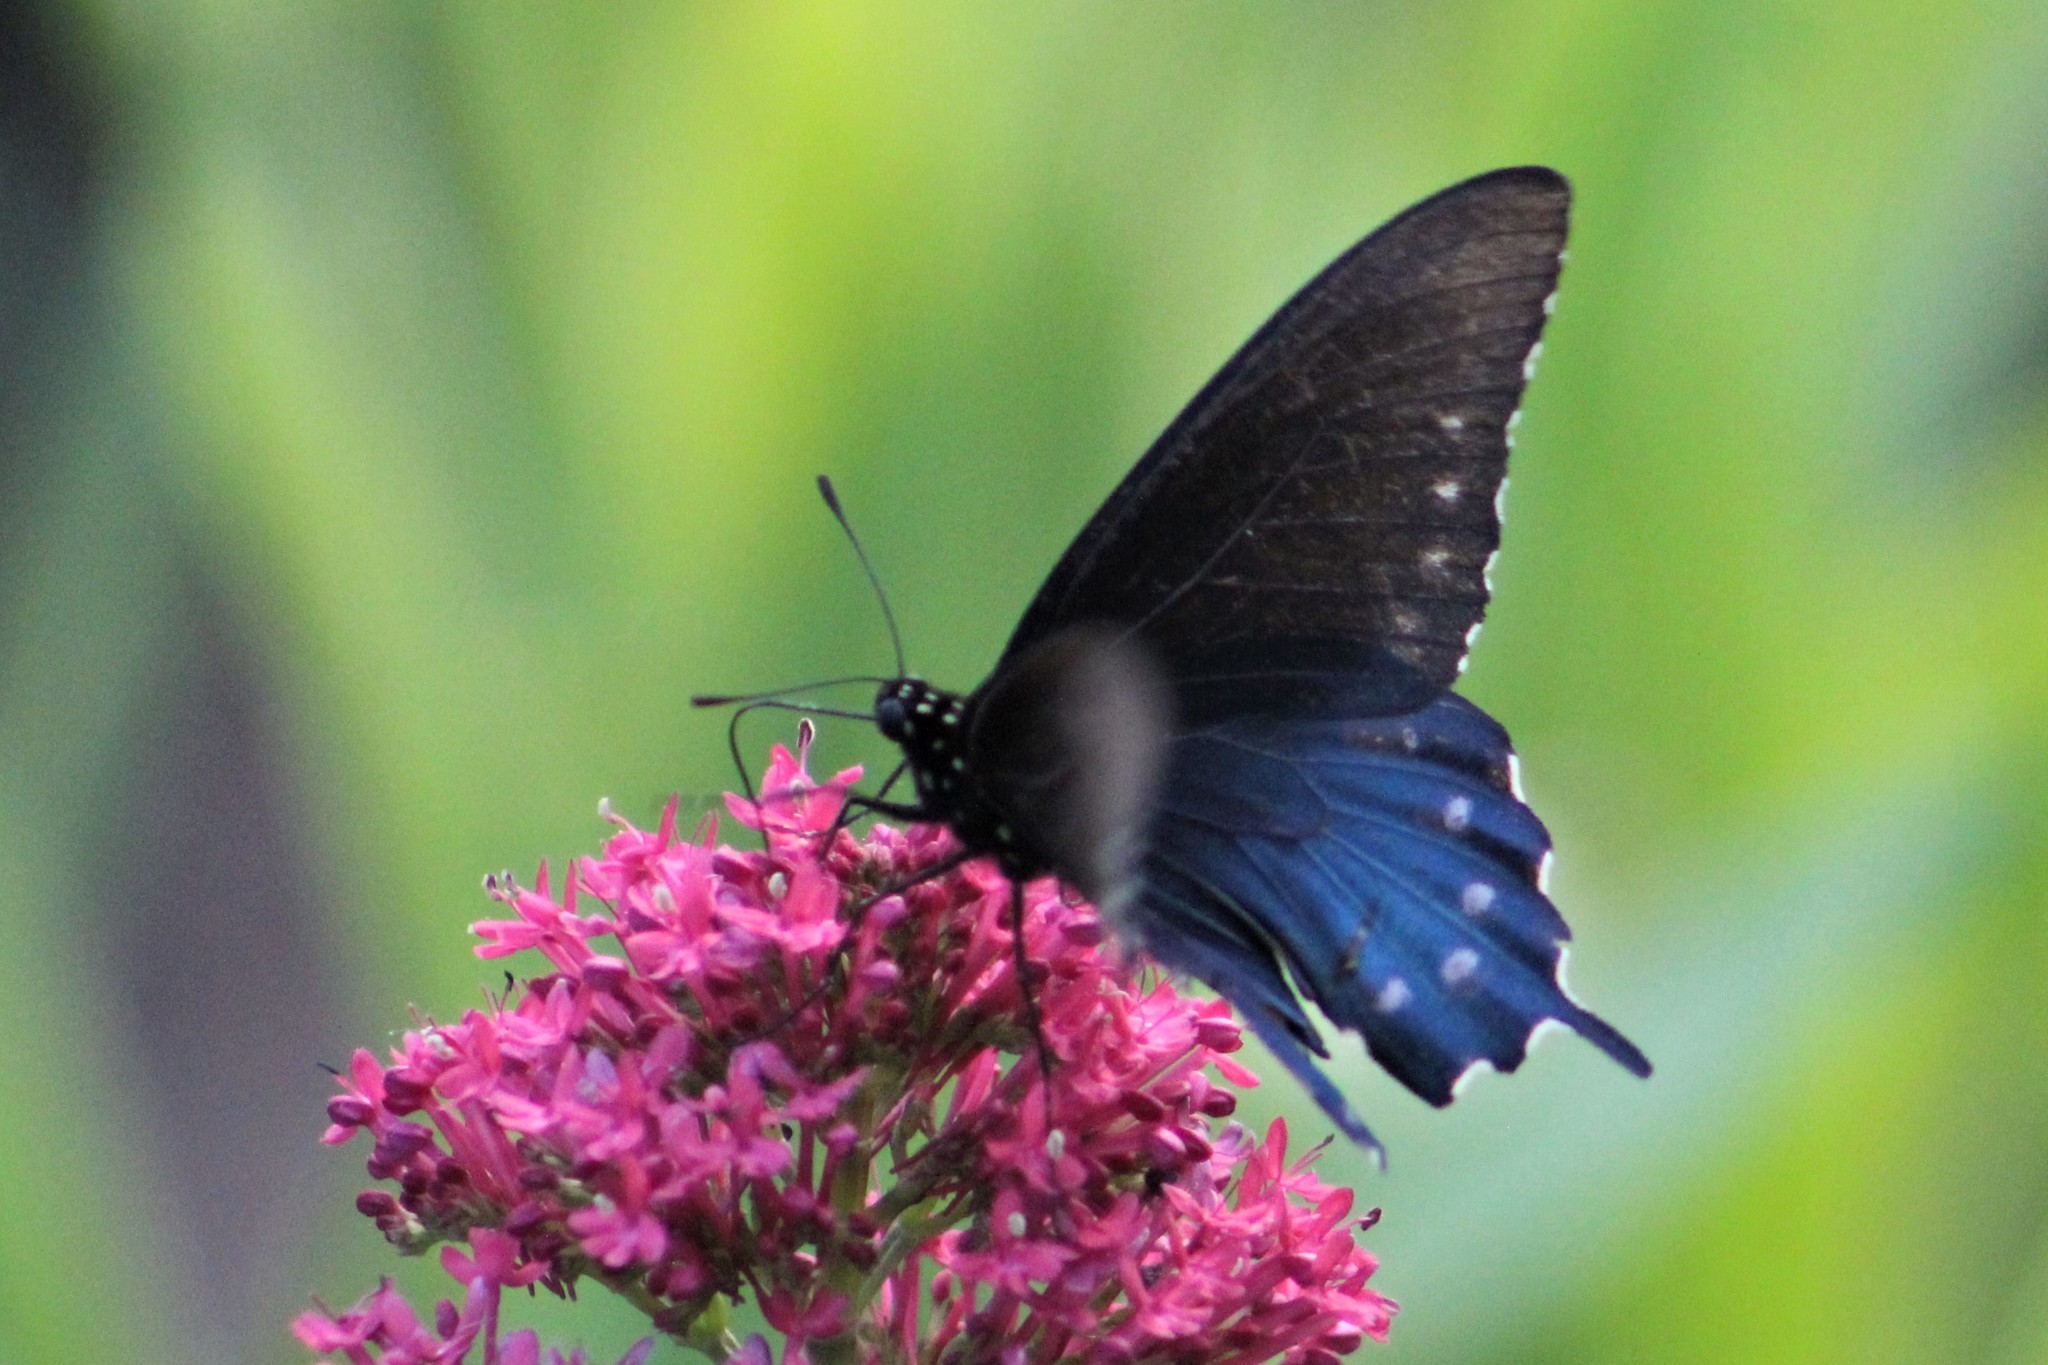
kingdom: Animalia
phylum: Arthropoda
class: Insecta
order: Lepidoptera
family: Papilionidae
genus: Battus
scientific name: Battus philenor
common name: Pipevine swallowtail
